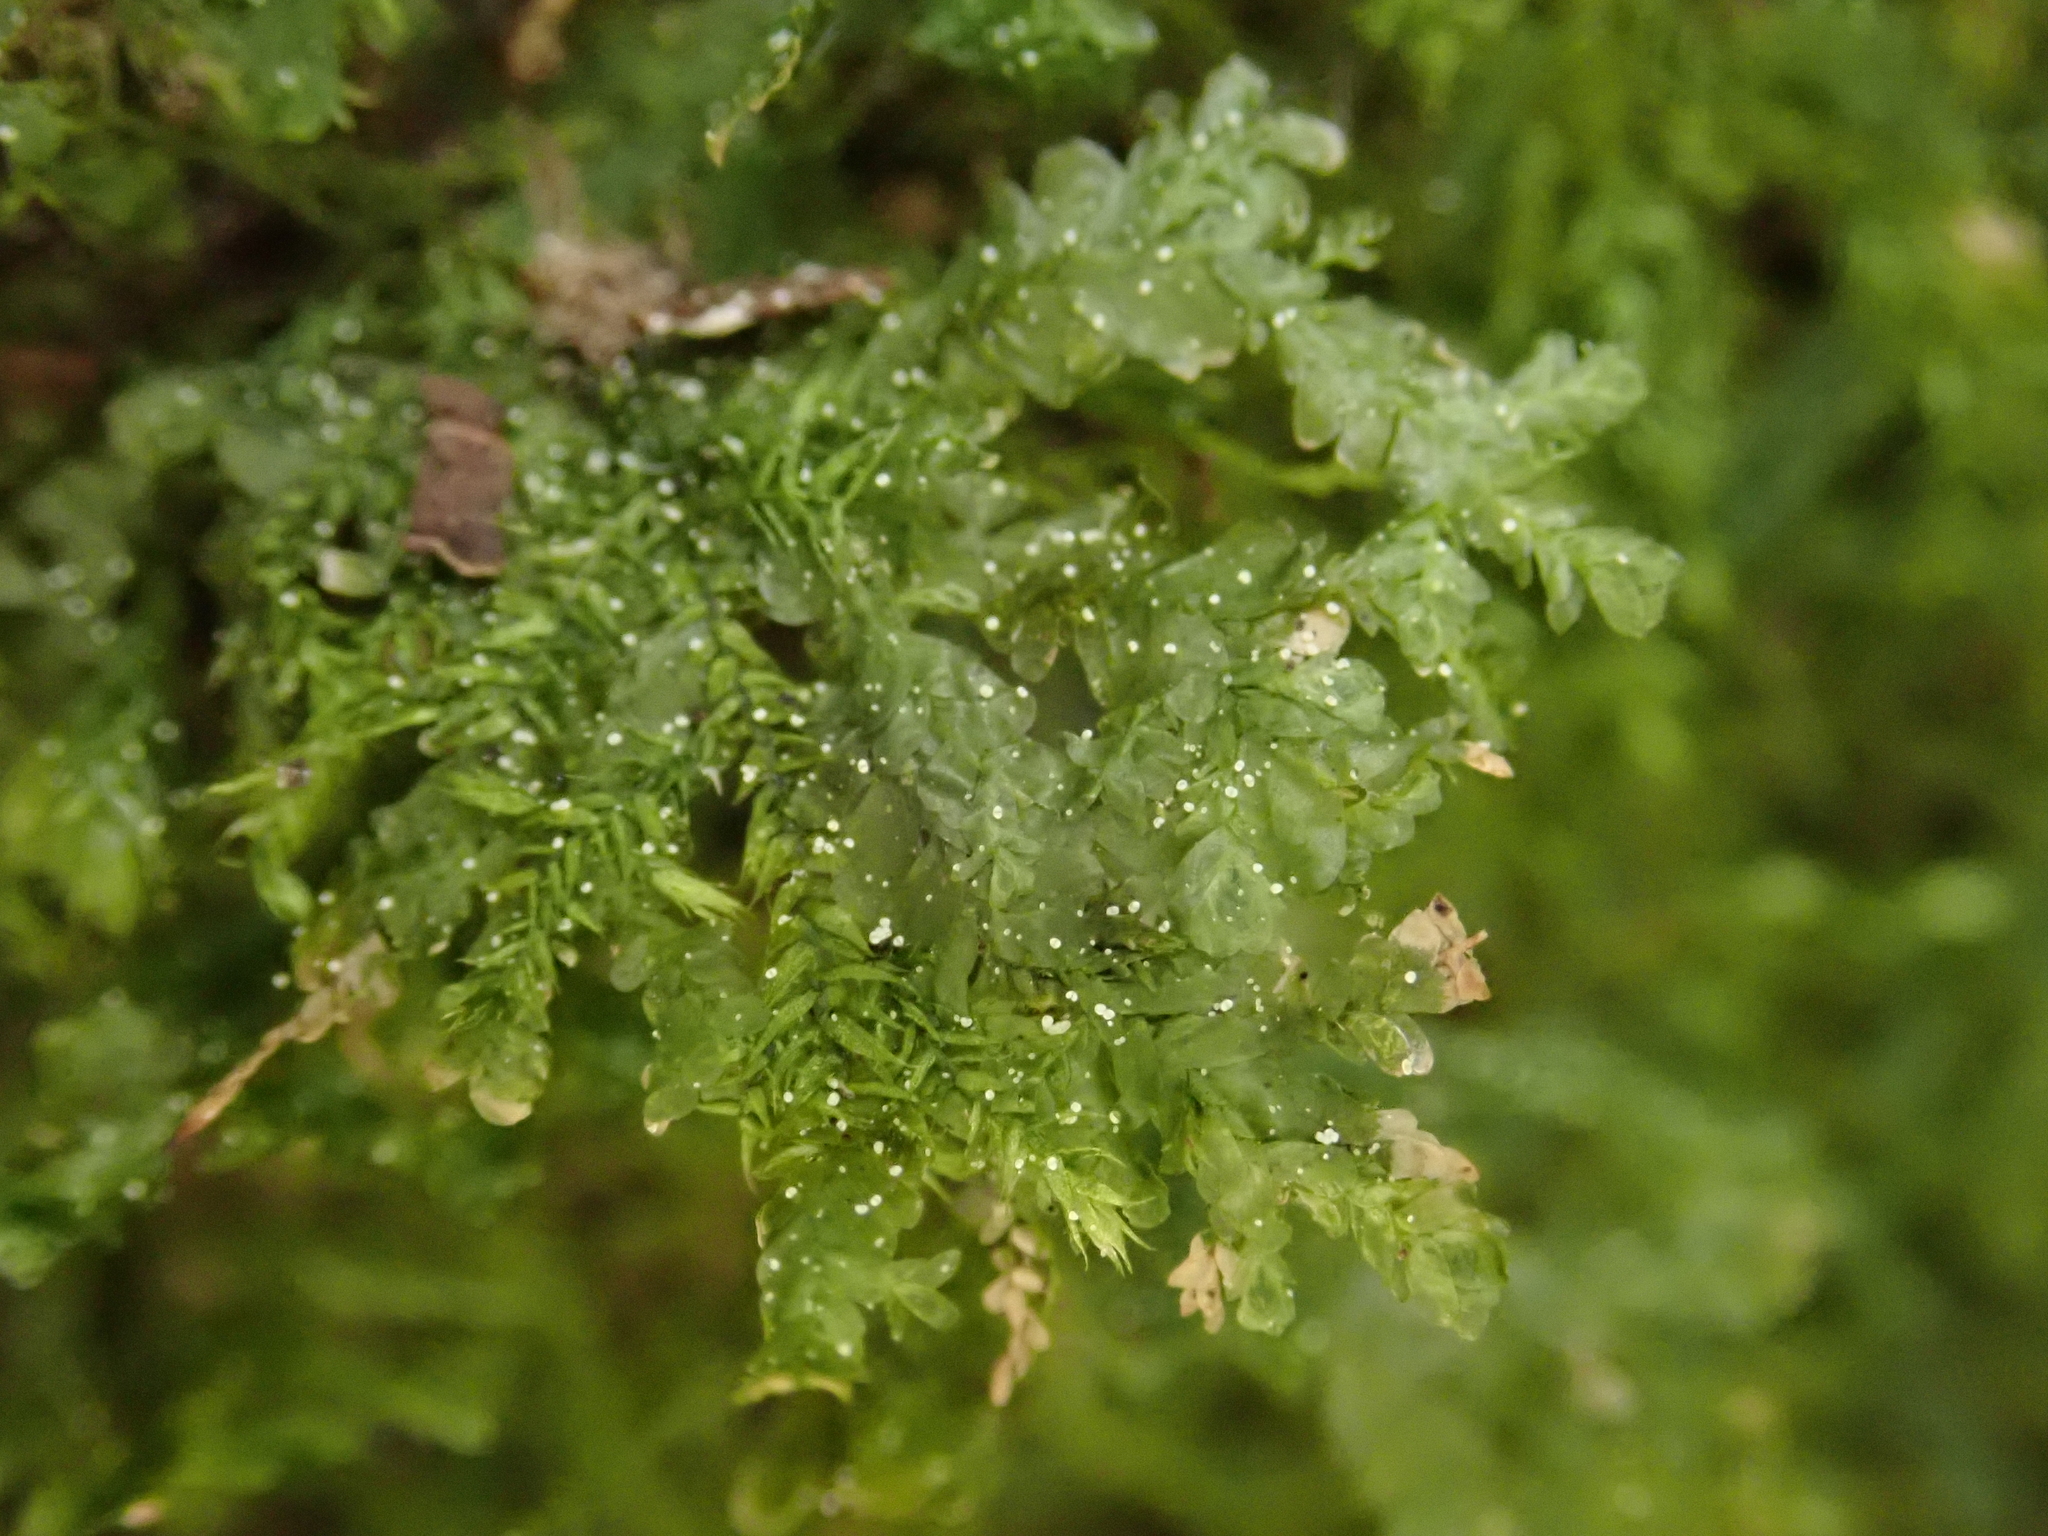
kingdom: Plantae
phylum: Bryophyta
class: Bryopsida
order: Hypnales
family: Neckeraceae
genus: Alleniella
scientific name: Alleniella besseri
